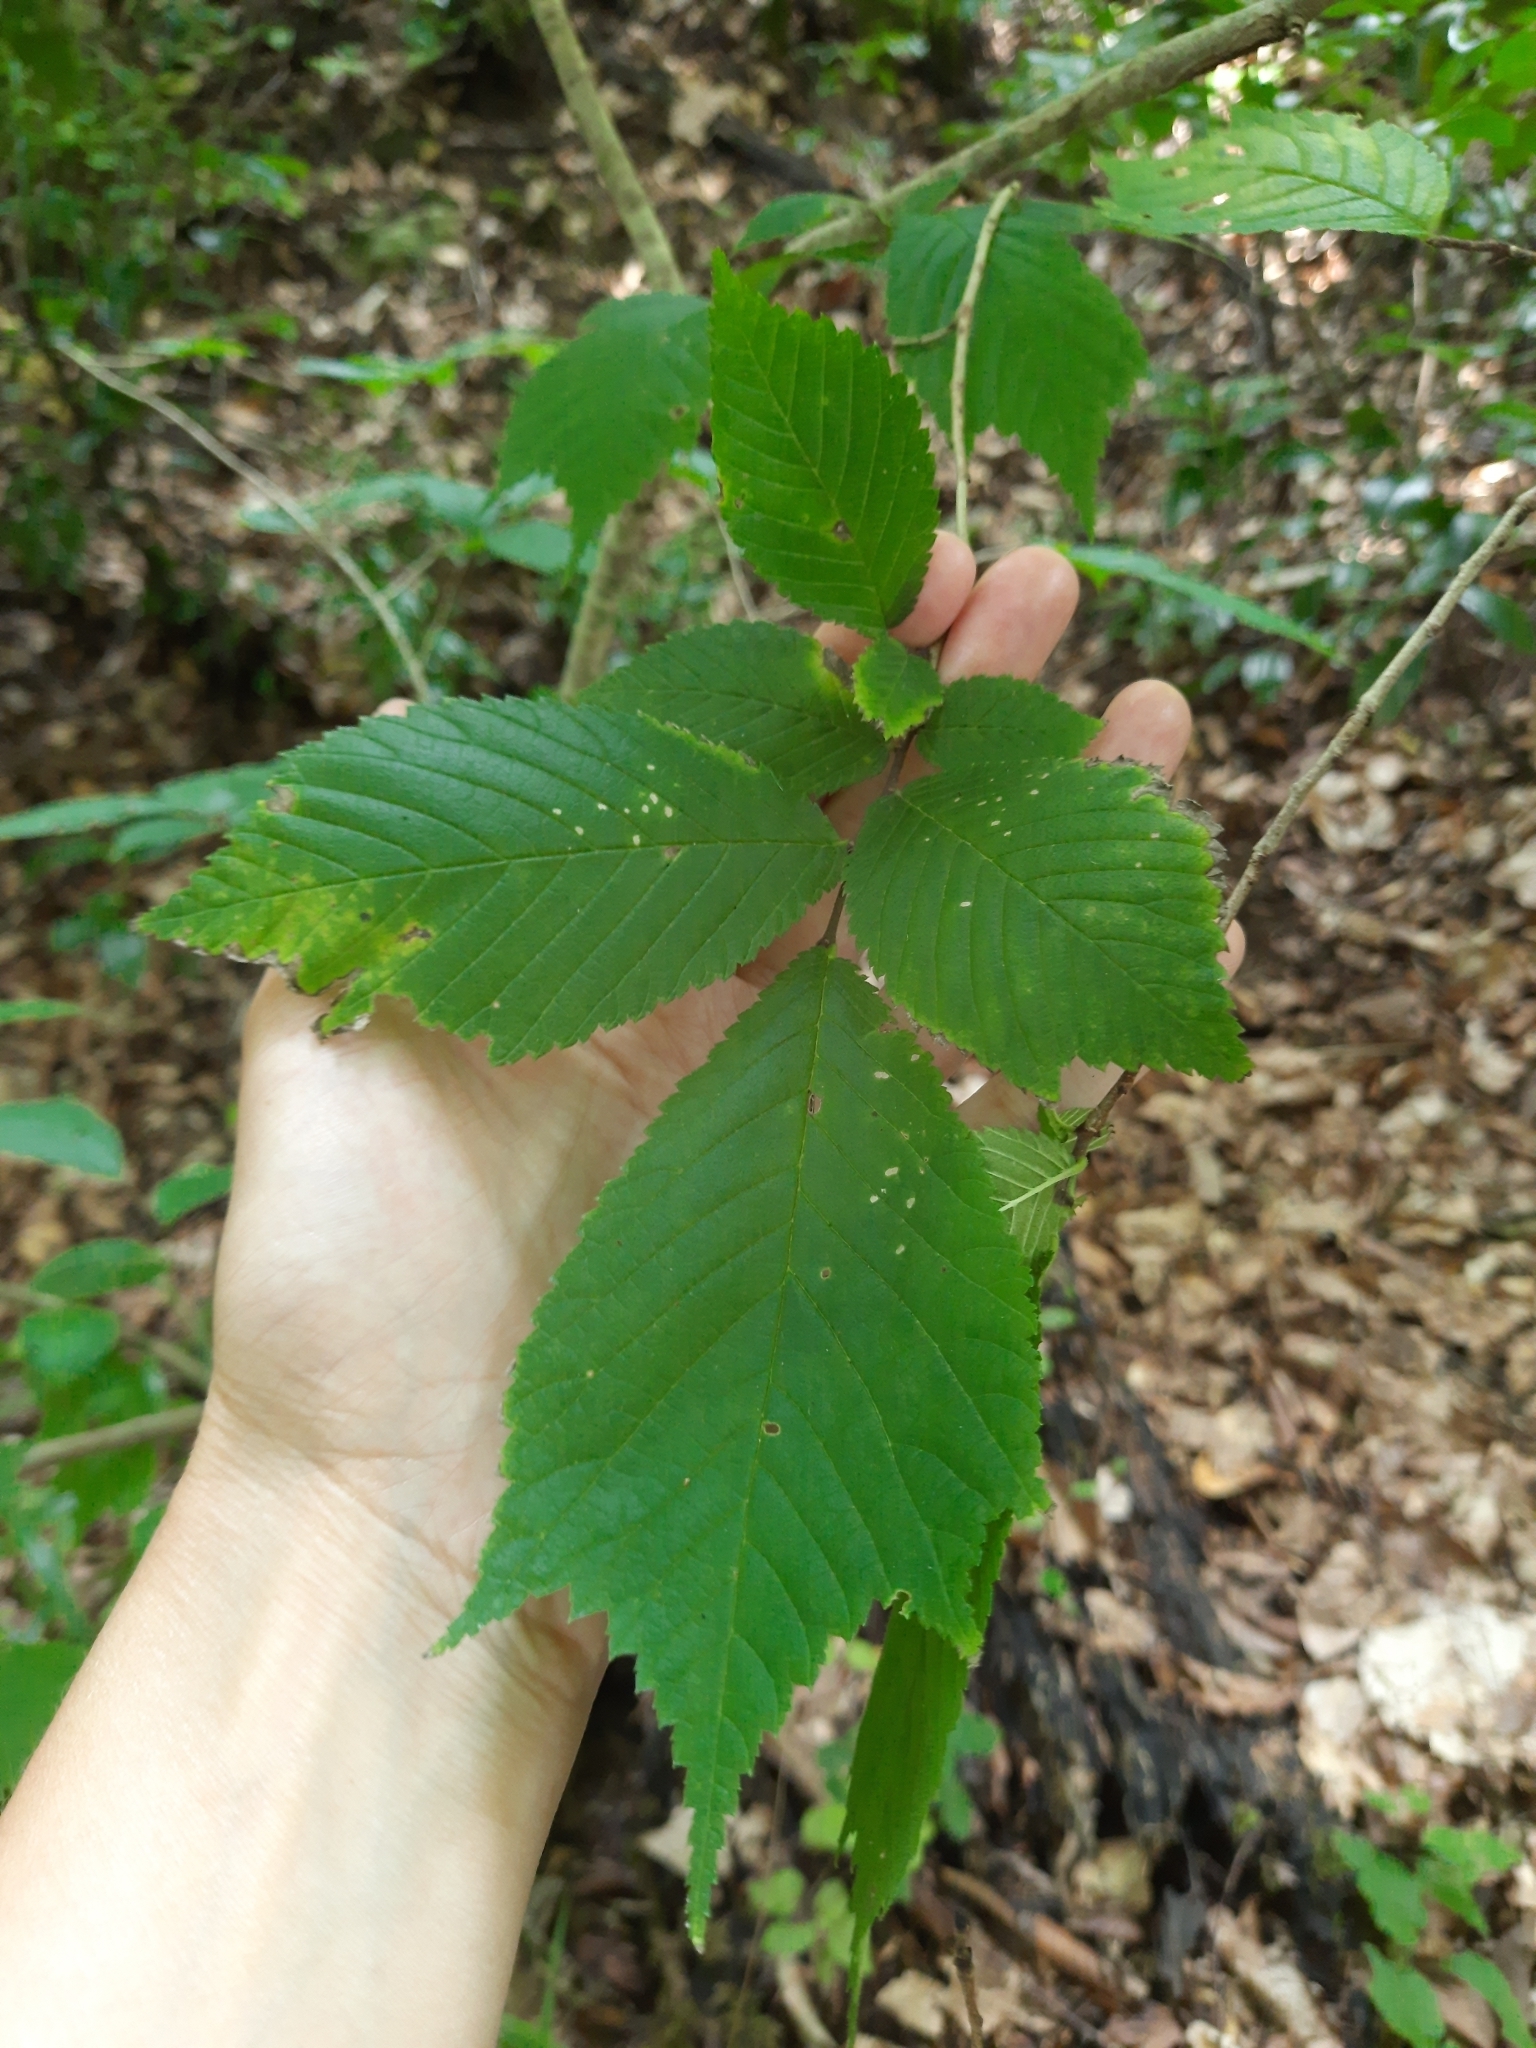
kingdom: Plantae
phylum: Tracheophyta
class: Magnoliopsida
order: Rosales
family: Ulmaceae
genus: Ulmus
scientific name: Ulmus glabra
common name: Wych elm
